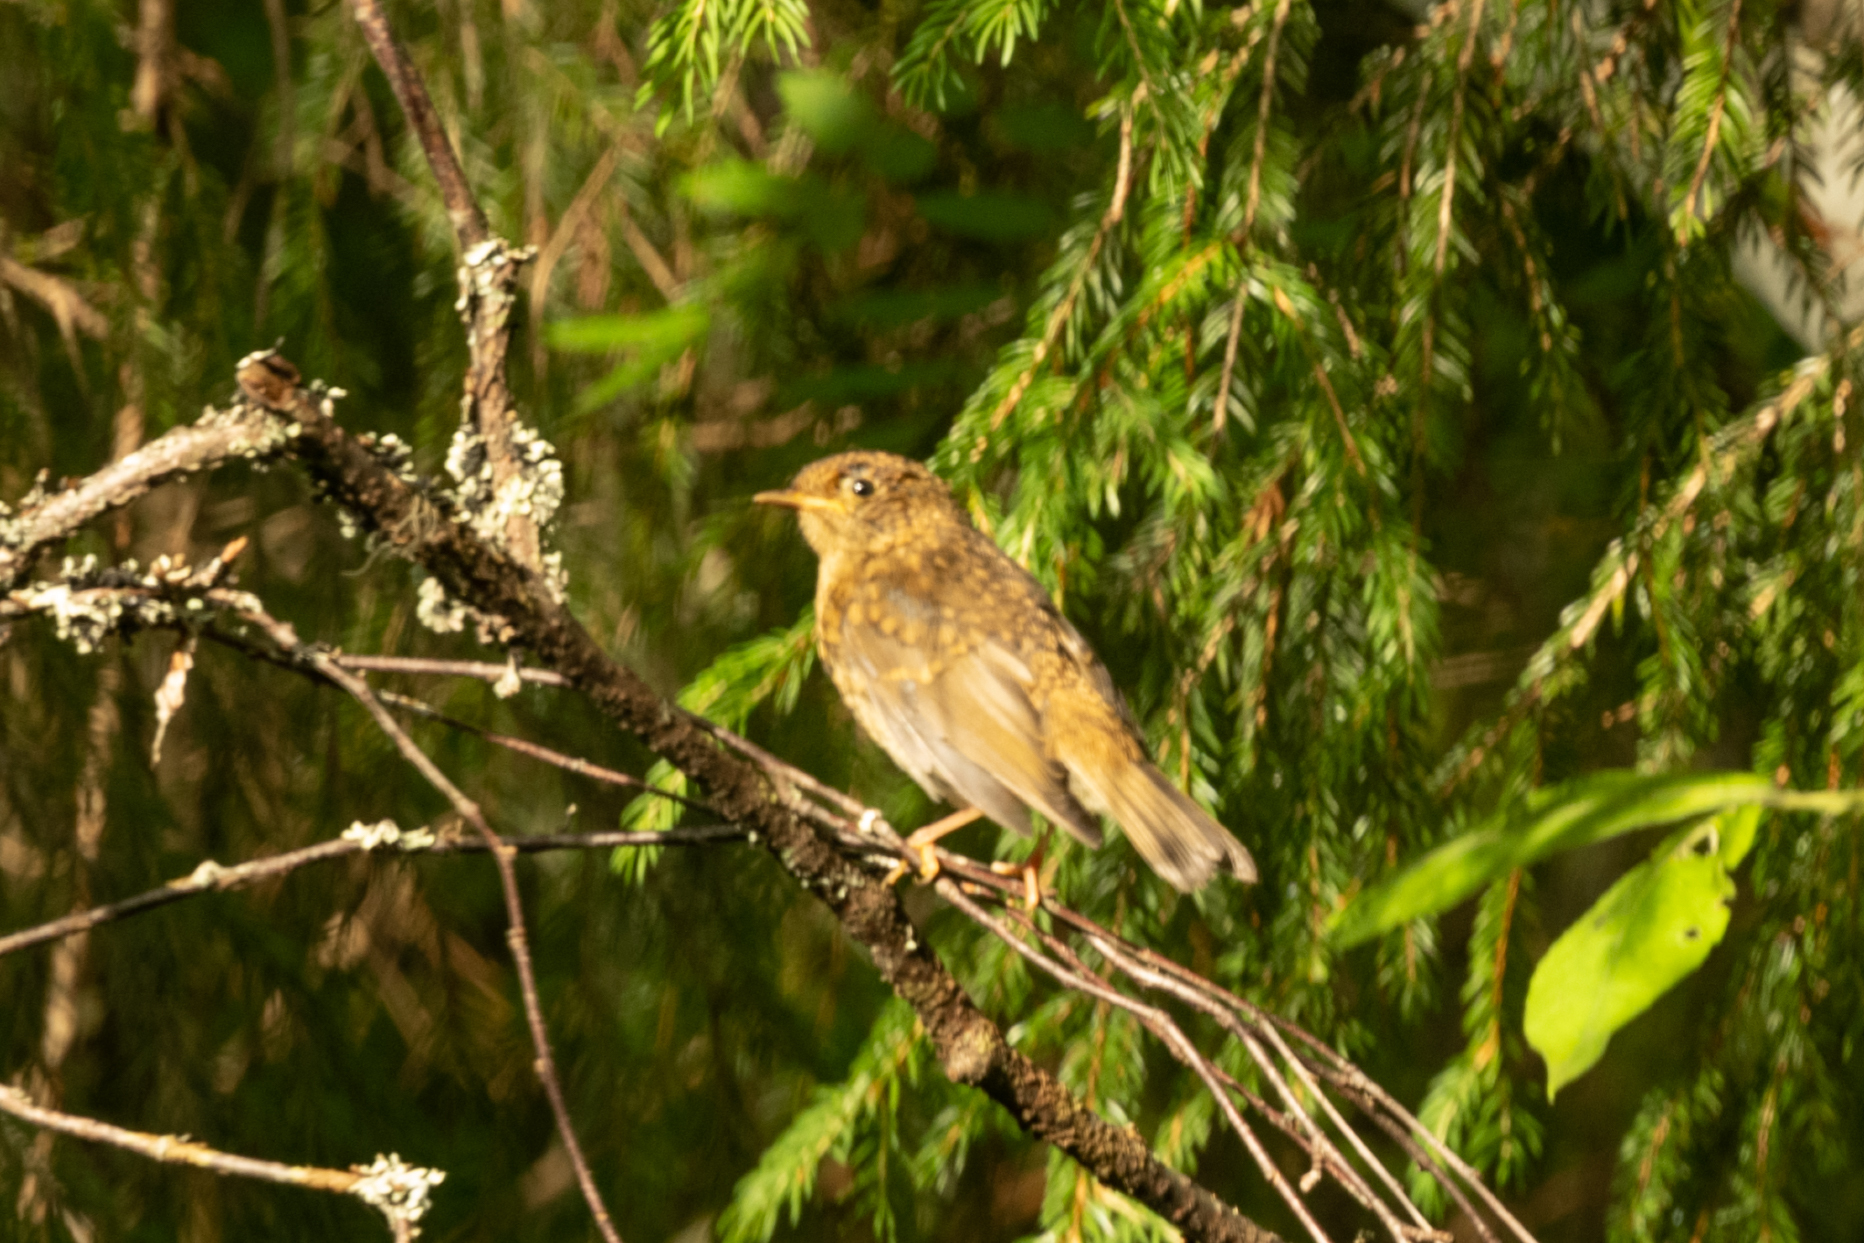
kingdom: Animalia
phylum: Chordata
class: Aves
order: Passeriformes
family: Muscicapidae
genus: Erithacus
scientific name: Erithacus rubecula
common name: European robin
